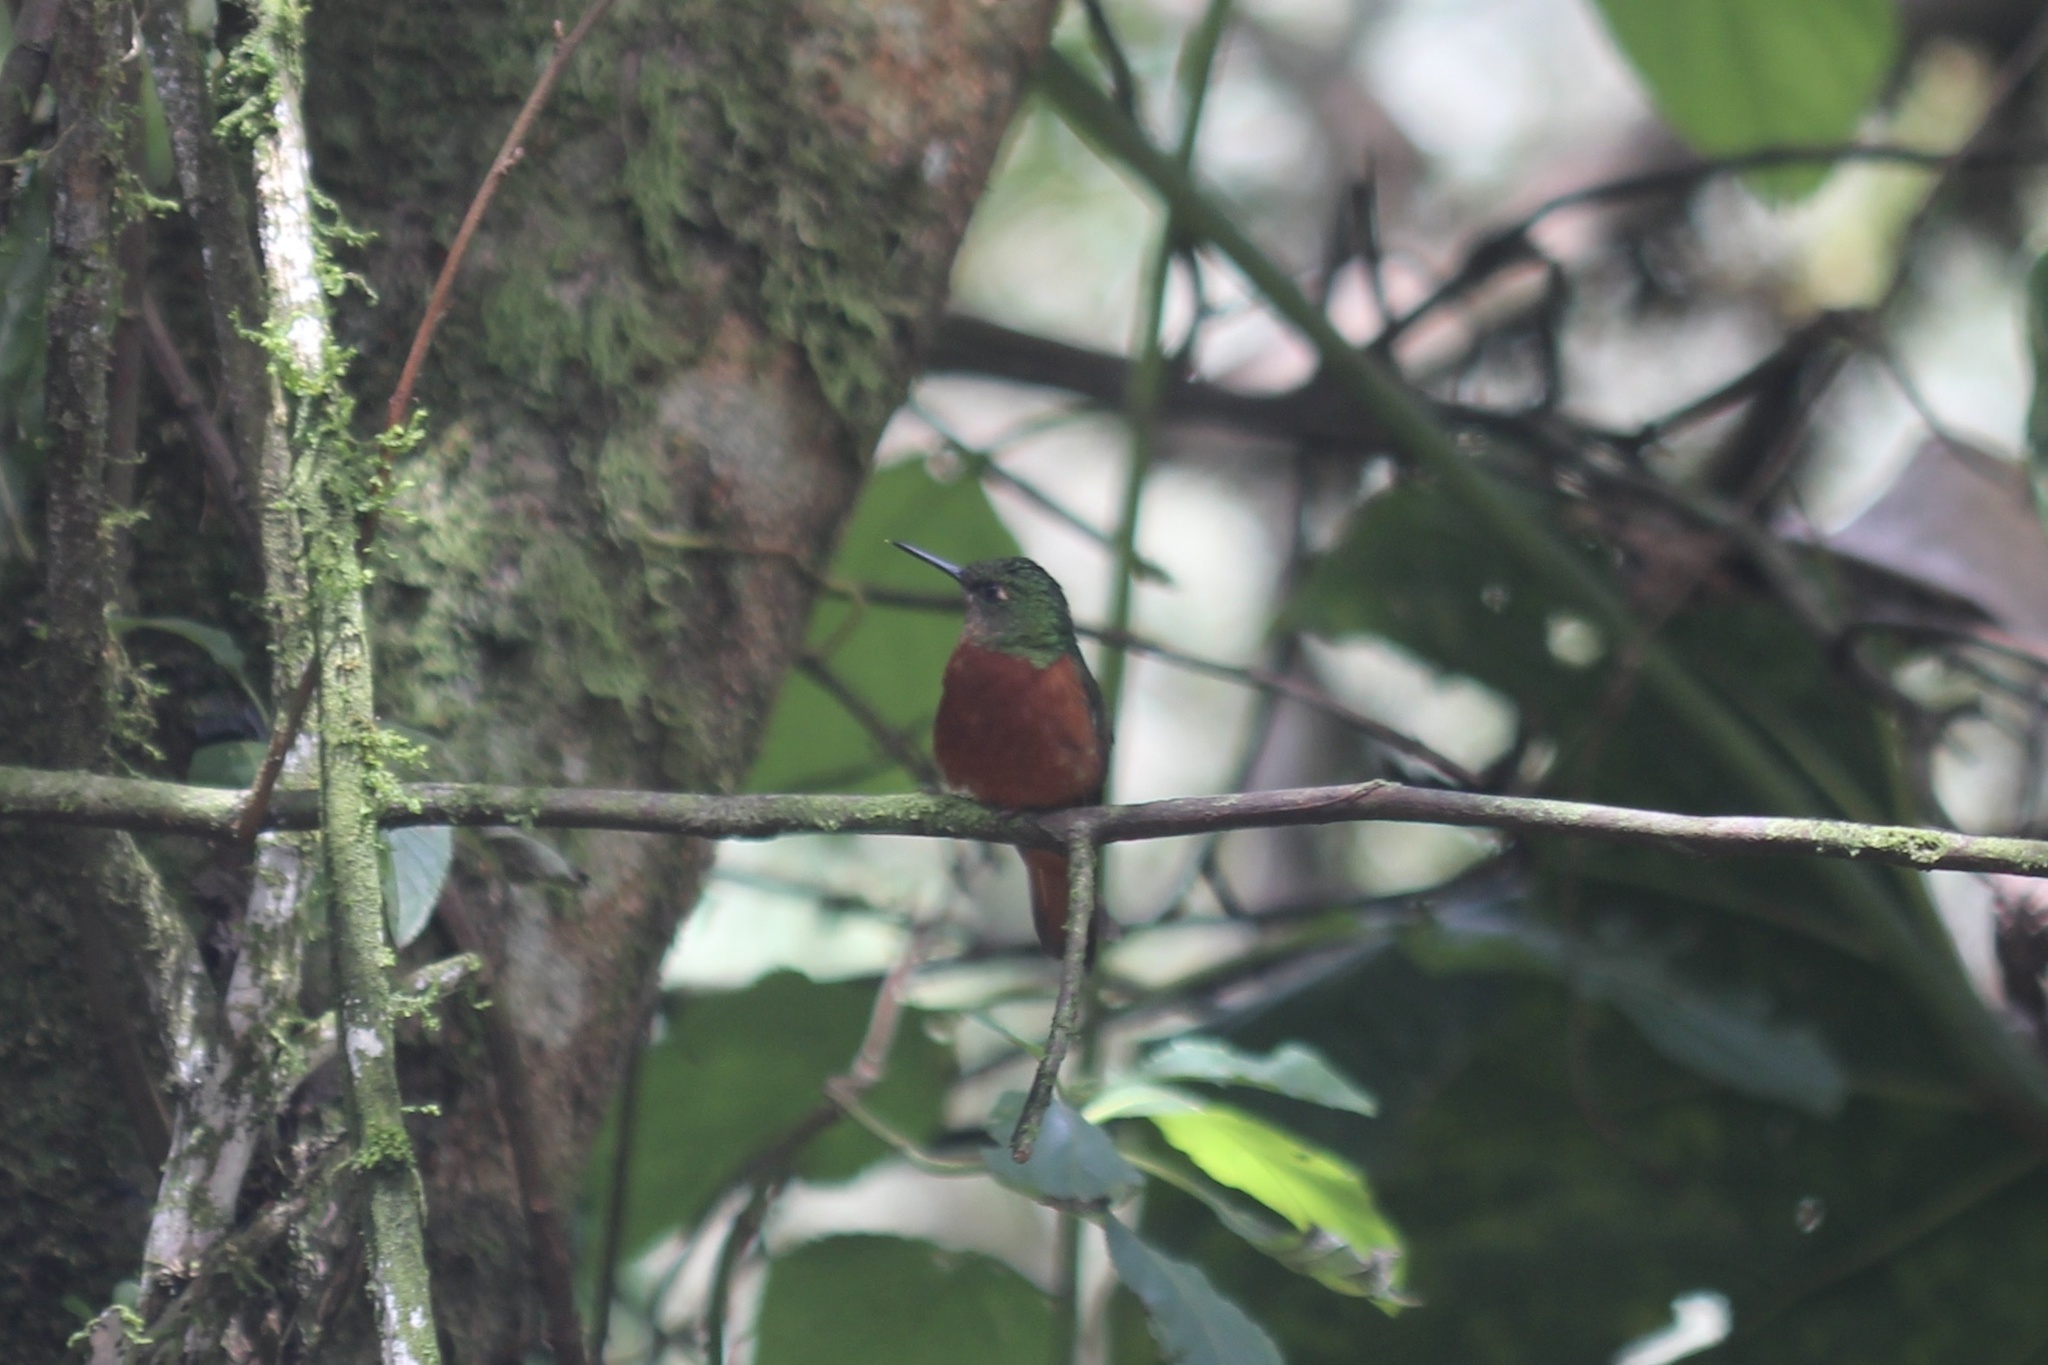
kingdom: Animalia
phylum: Chordata
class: Aves
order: Apodiformes
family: Trochilidae
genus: Boissonneaua
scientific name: Boissonneaua matthewsii
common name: Chestnut-breasted coronet
